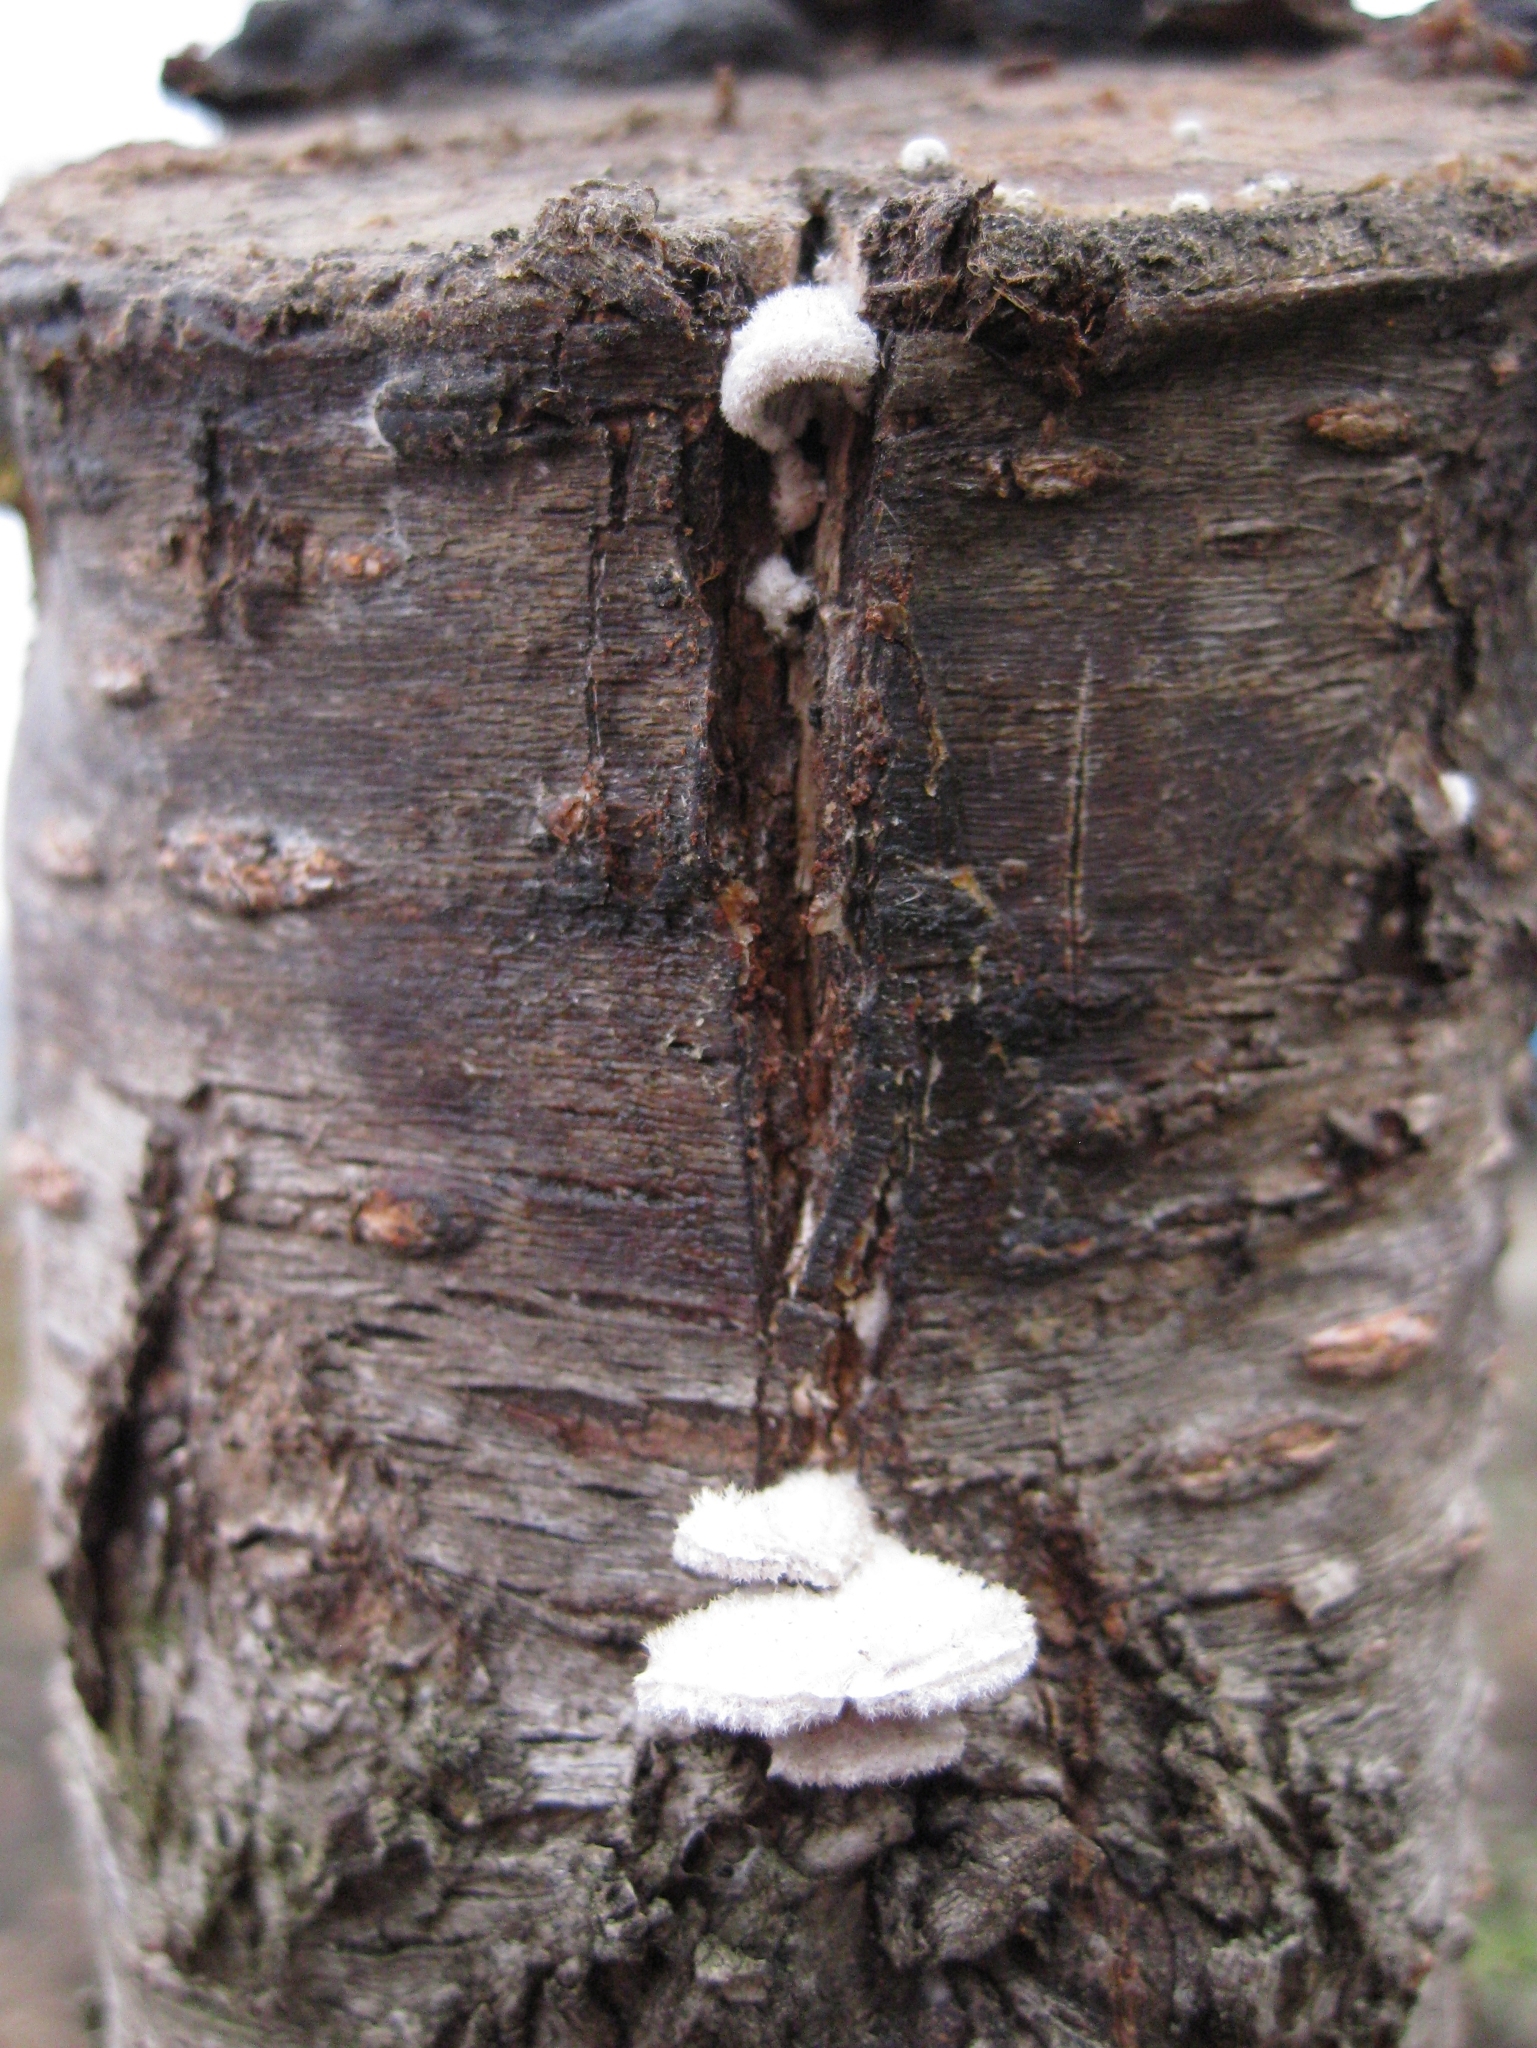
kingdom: Fungi
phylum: Basidiomycota
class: Agaricomycetes
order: Agaricales
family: Schizophyllaceae
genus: Schizophyllum
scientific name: Schizophyllum commune
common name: Common porecrust
